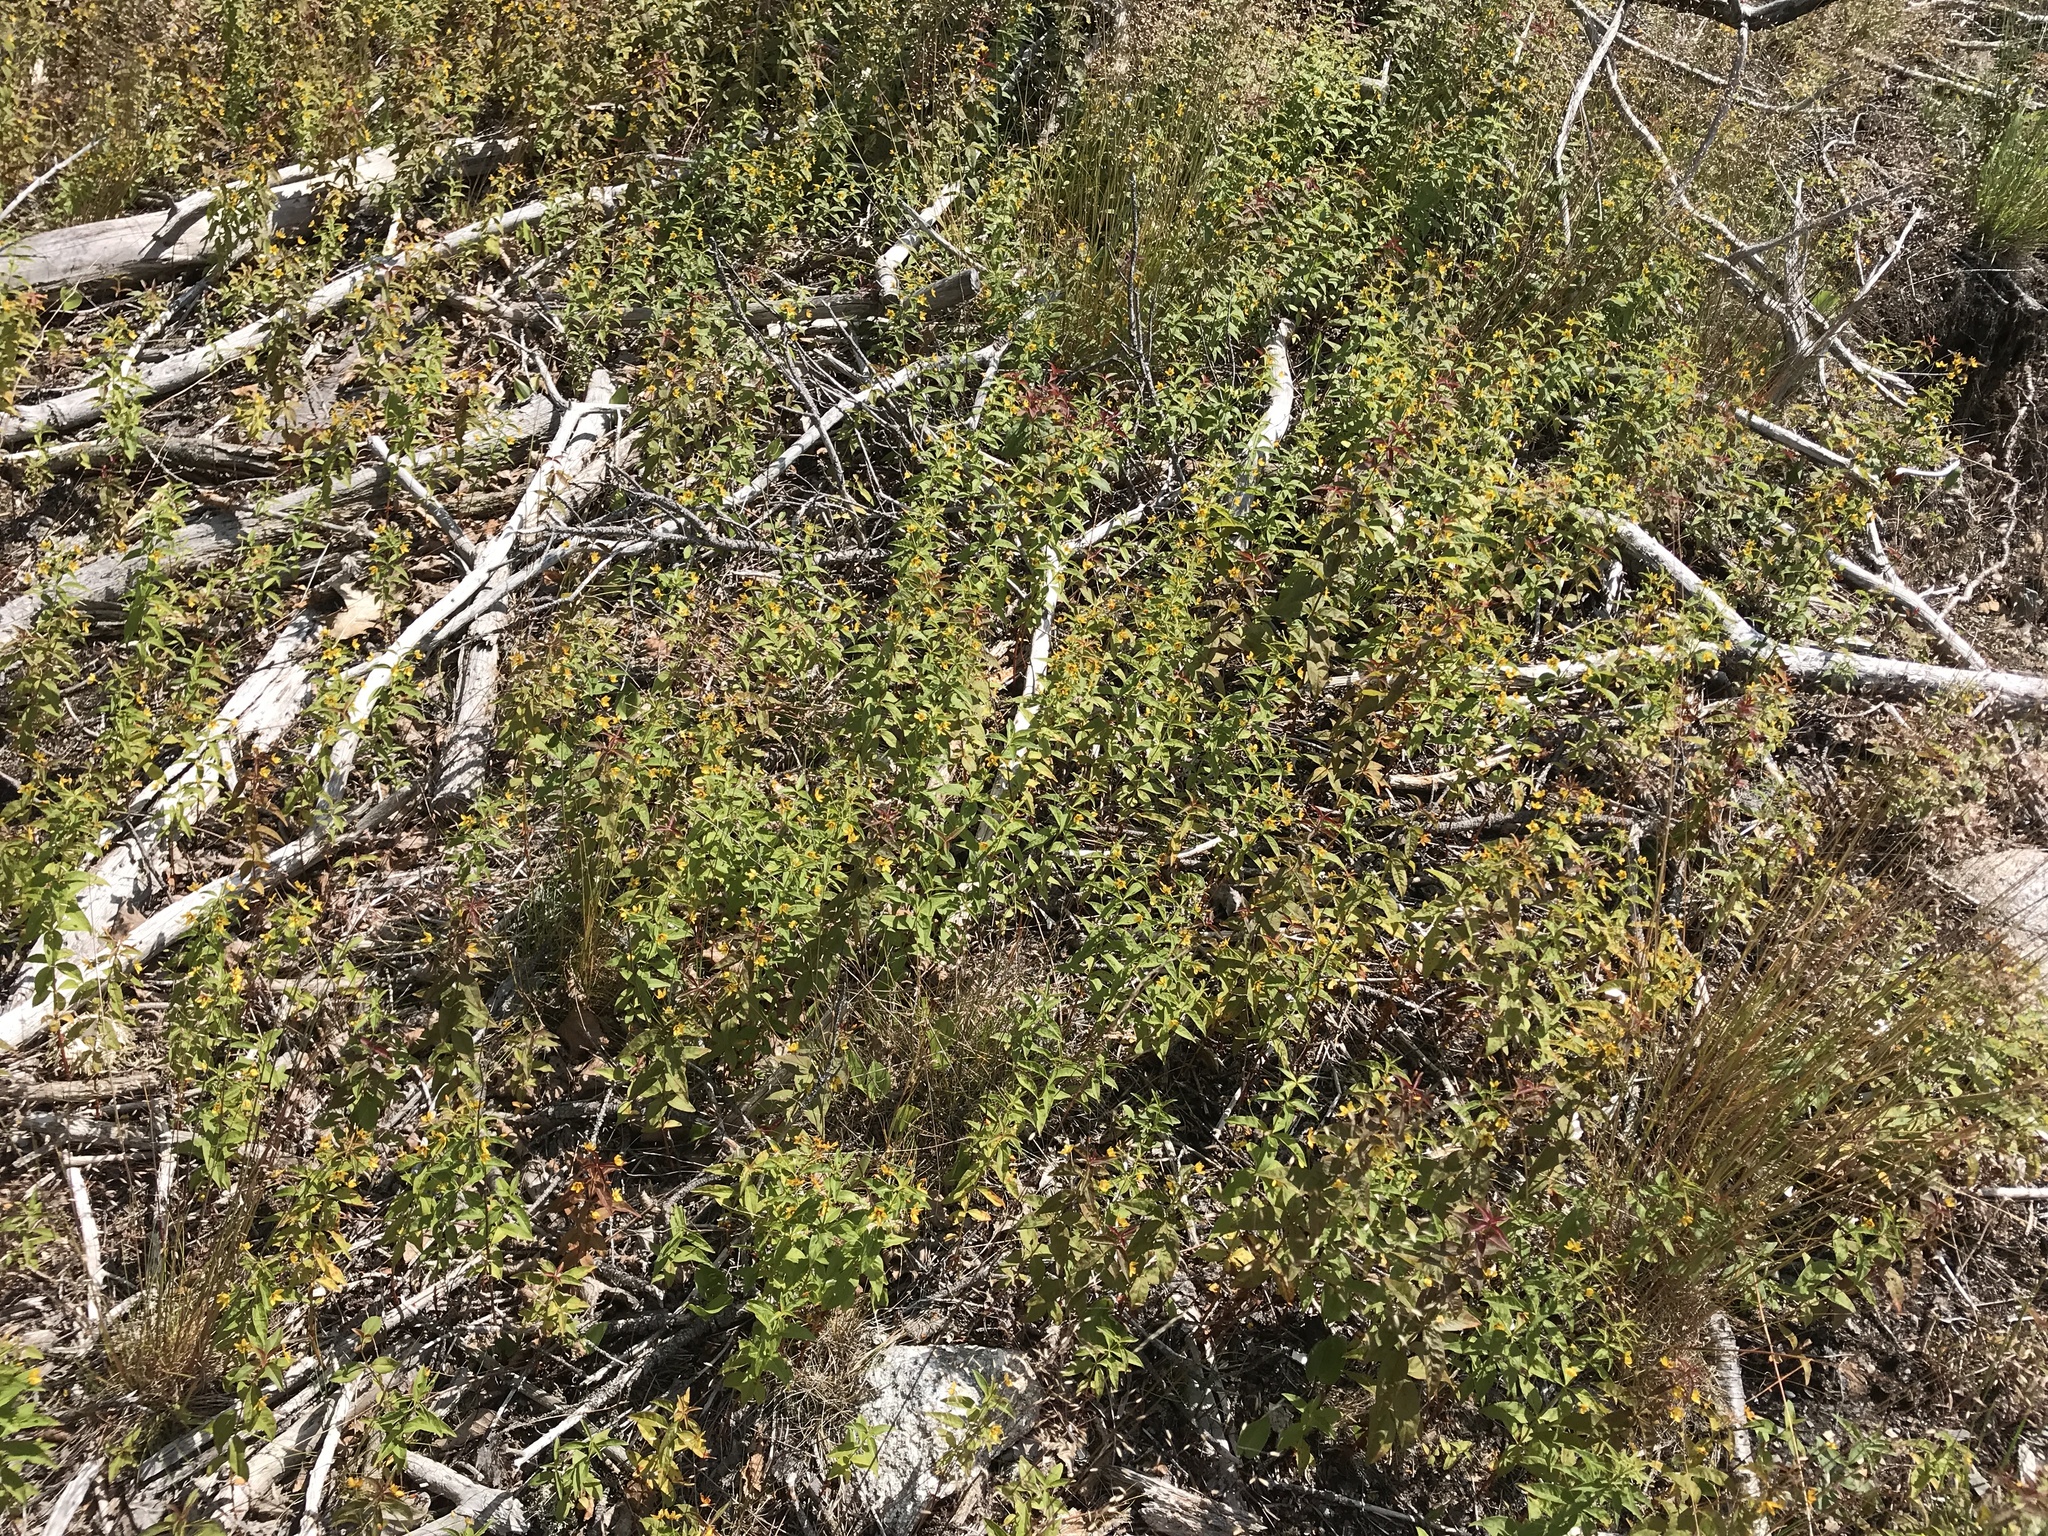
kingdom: Plantae
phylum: Tracheophyta
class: Magnoliopsida
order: Ericales
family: Primulaceae
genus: Lysimachia
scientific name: Lysimachia quadrifolia
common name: Whorled loosestrife
